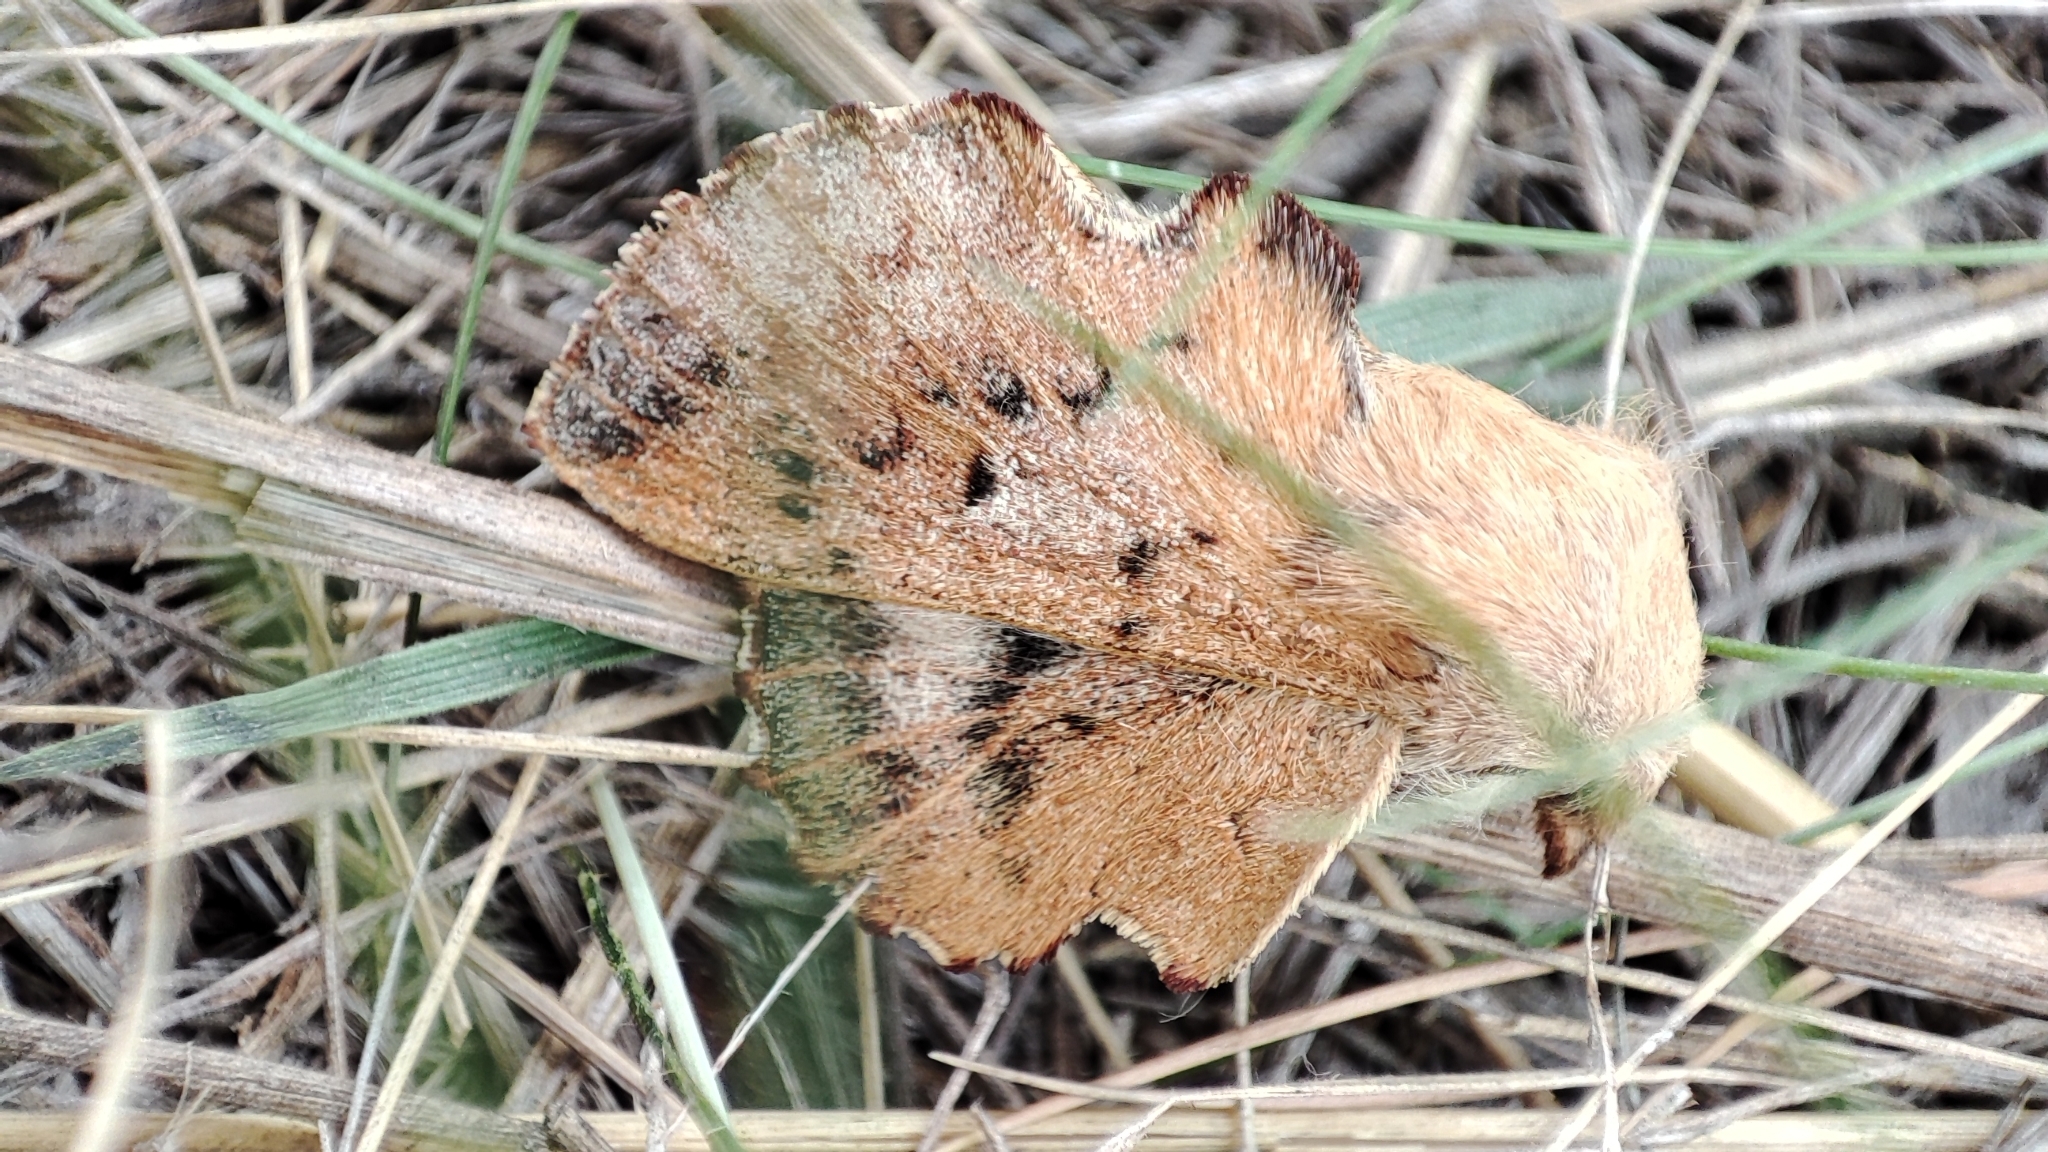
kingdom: Animalia
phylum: Arthropoda
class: Insecta
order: Lepidoptera
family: Lasiocampidae
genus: Phyllodesma
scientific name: Phyllodesma tremulifolia
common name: Aspen lappet
